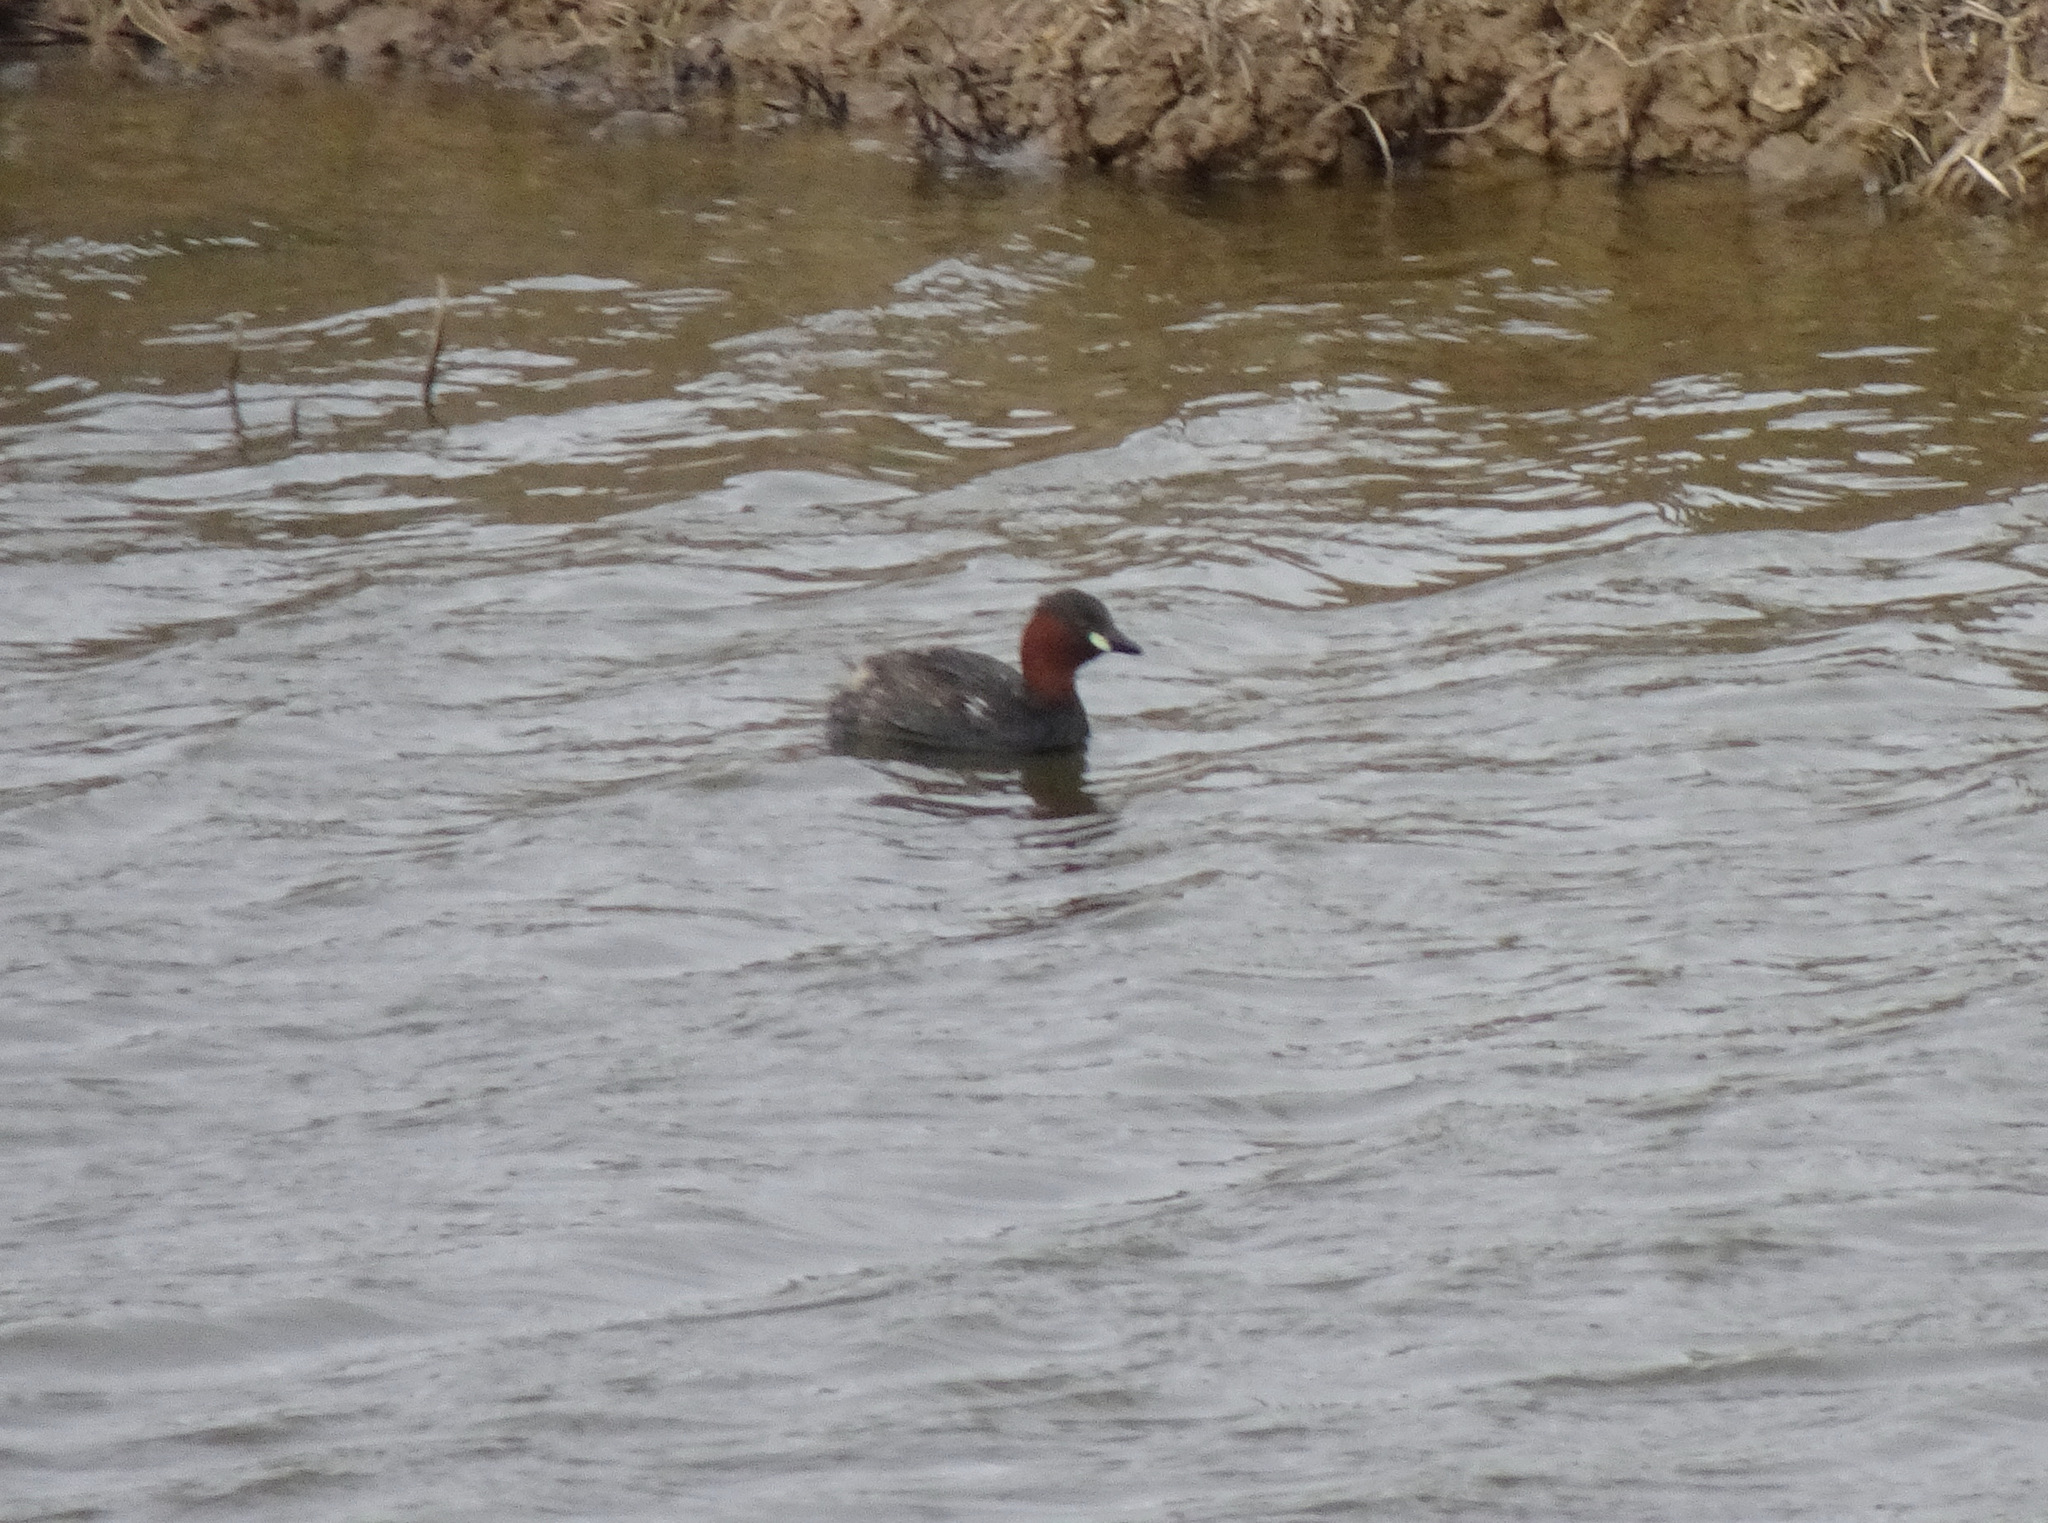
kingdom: Animalia
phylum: Chordata
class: Aves
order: Podicipediformes
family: Podicipedidae
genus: Tachybaptus
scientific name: Tachybaptus ruficollis
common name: Little grebe
